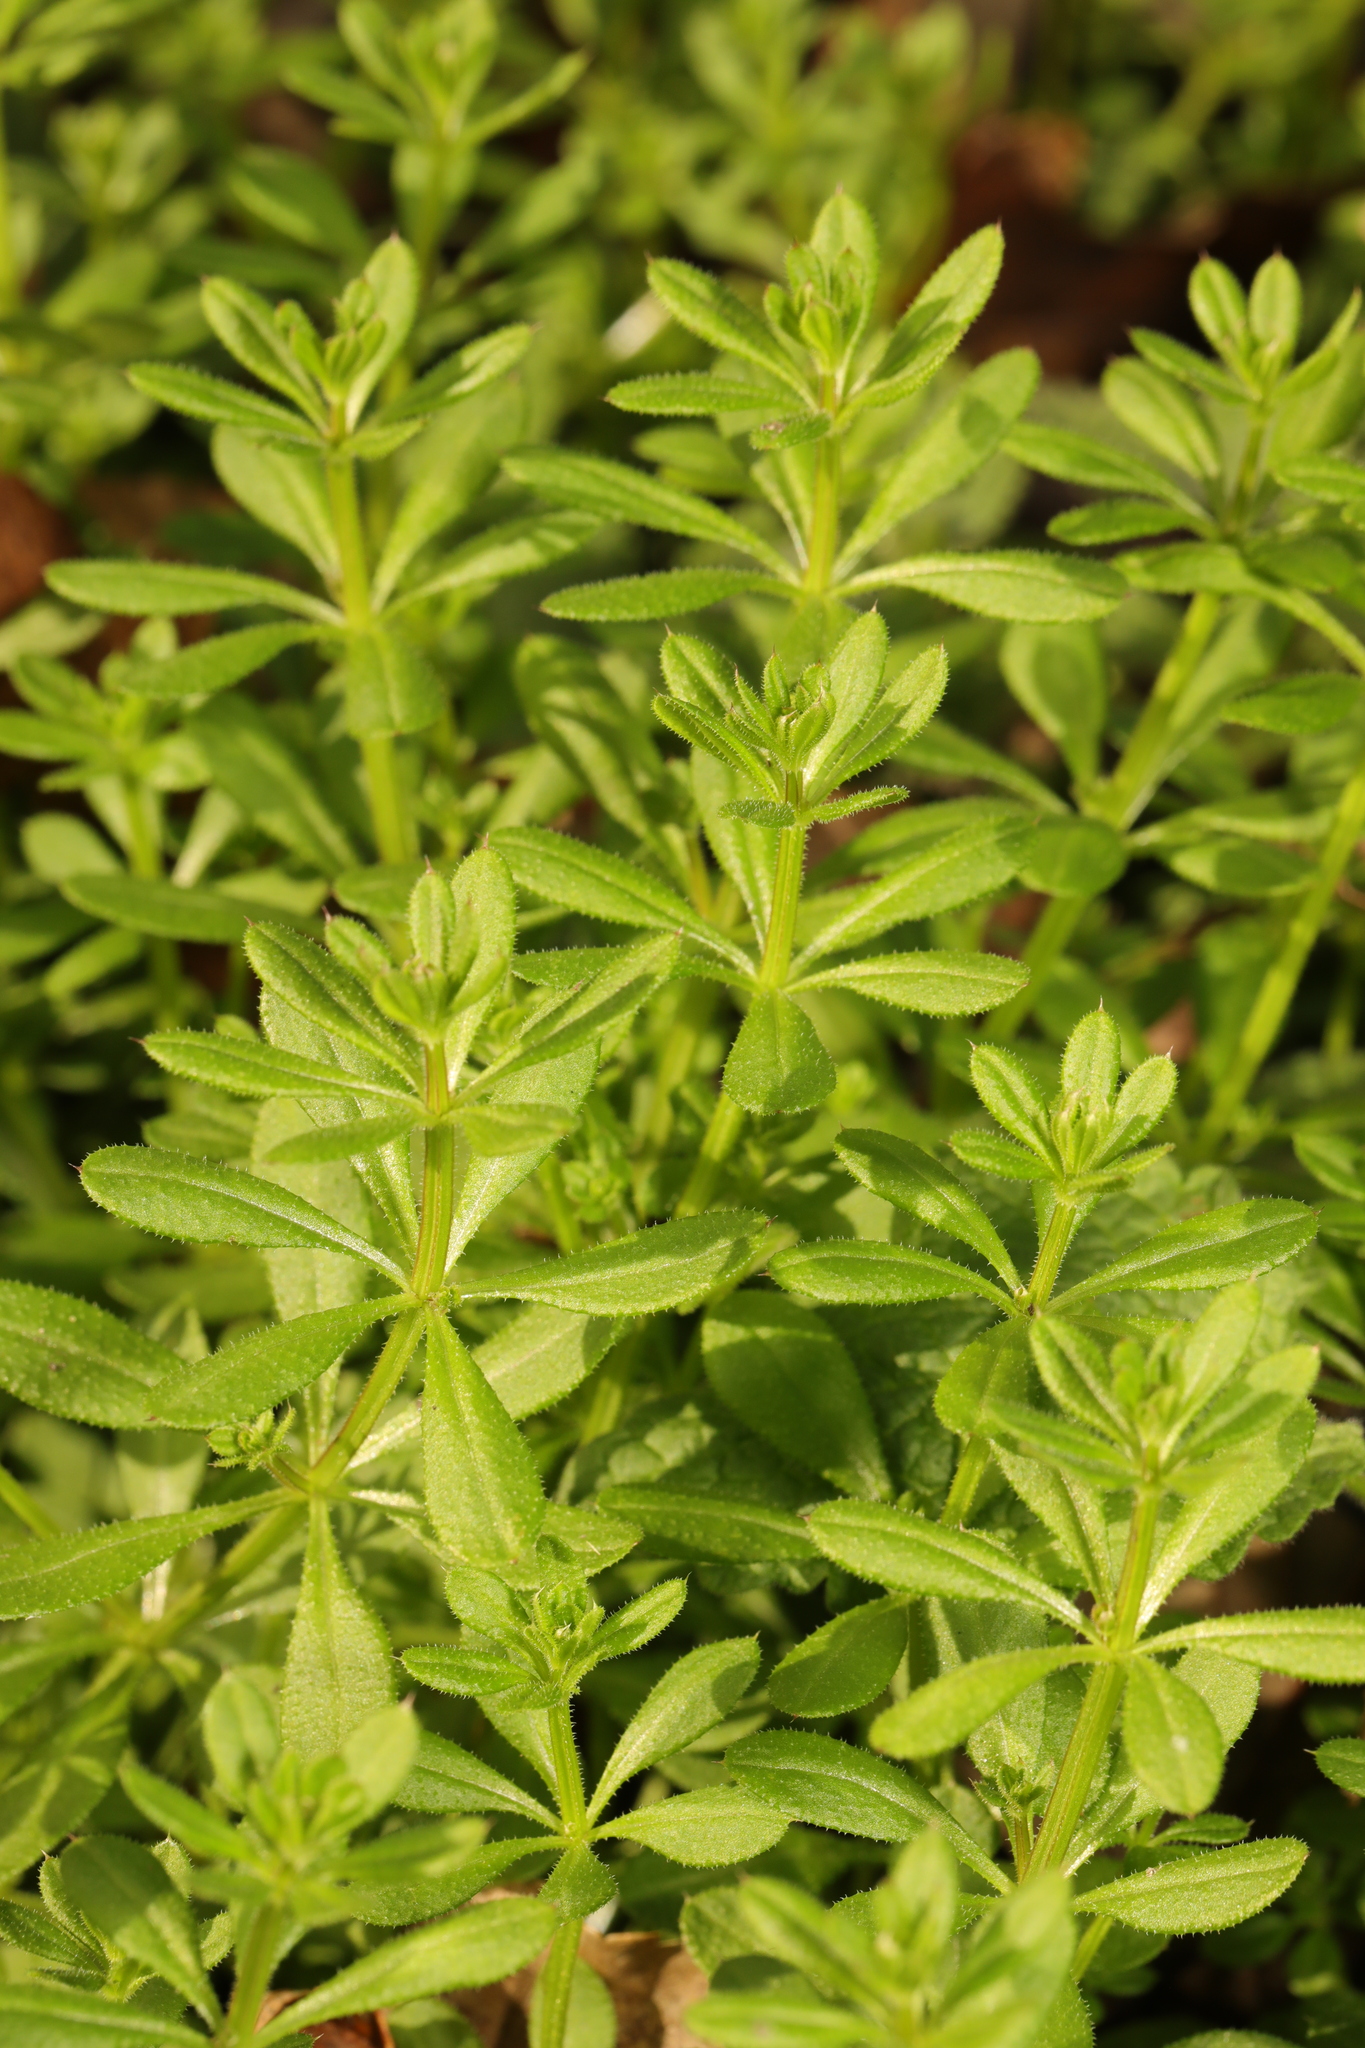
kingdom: Plantae
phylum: Tracheophyta
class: Magnoliopsida
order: Gentianales
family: Rubiaceae
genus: Galium
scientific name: Galium aparine
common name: Cleavers
